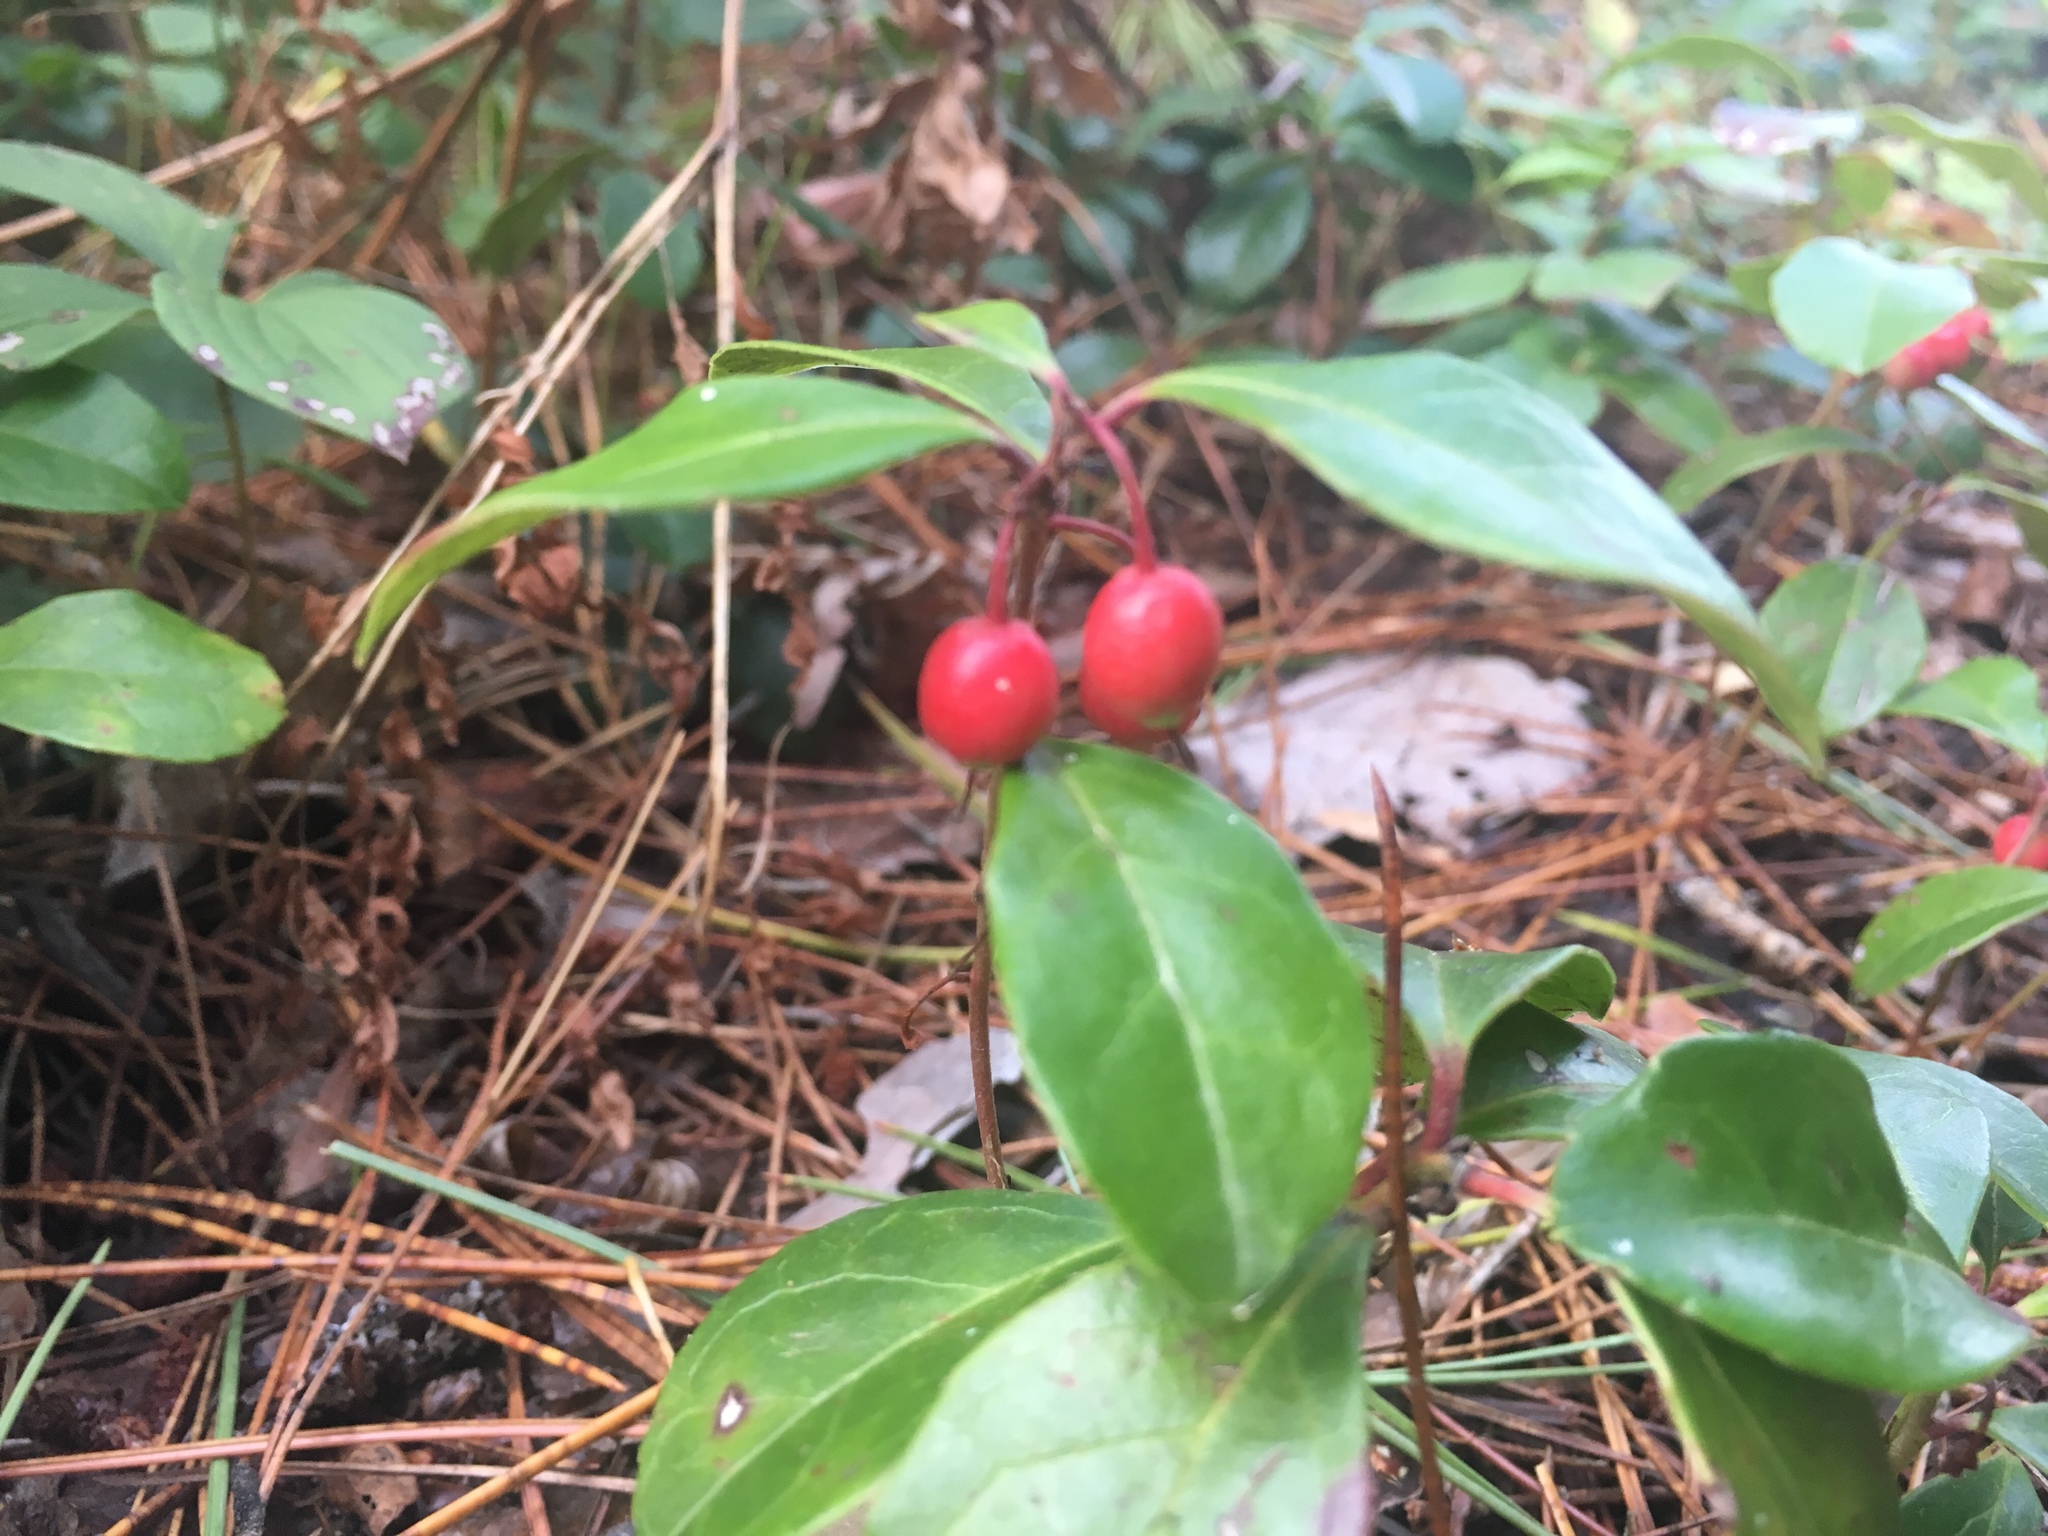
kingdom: Plantae
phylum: Tracheophyta
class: Magnoliopsida
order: Ericales
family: Ericaceae
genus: Gaultheria
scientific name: Gaultheria procumbens
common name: Checkerberry
